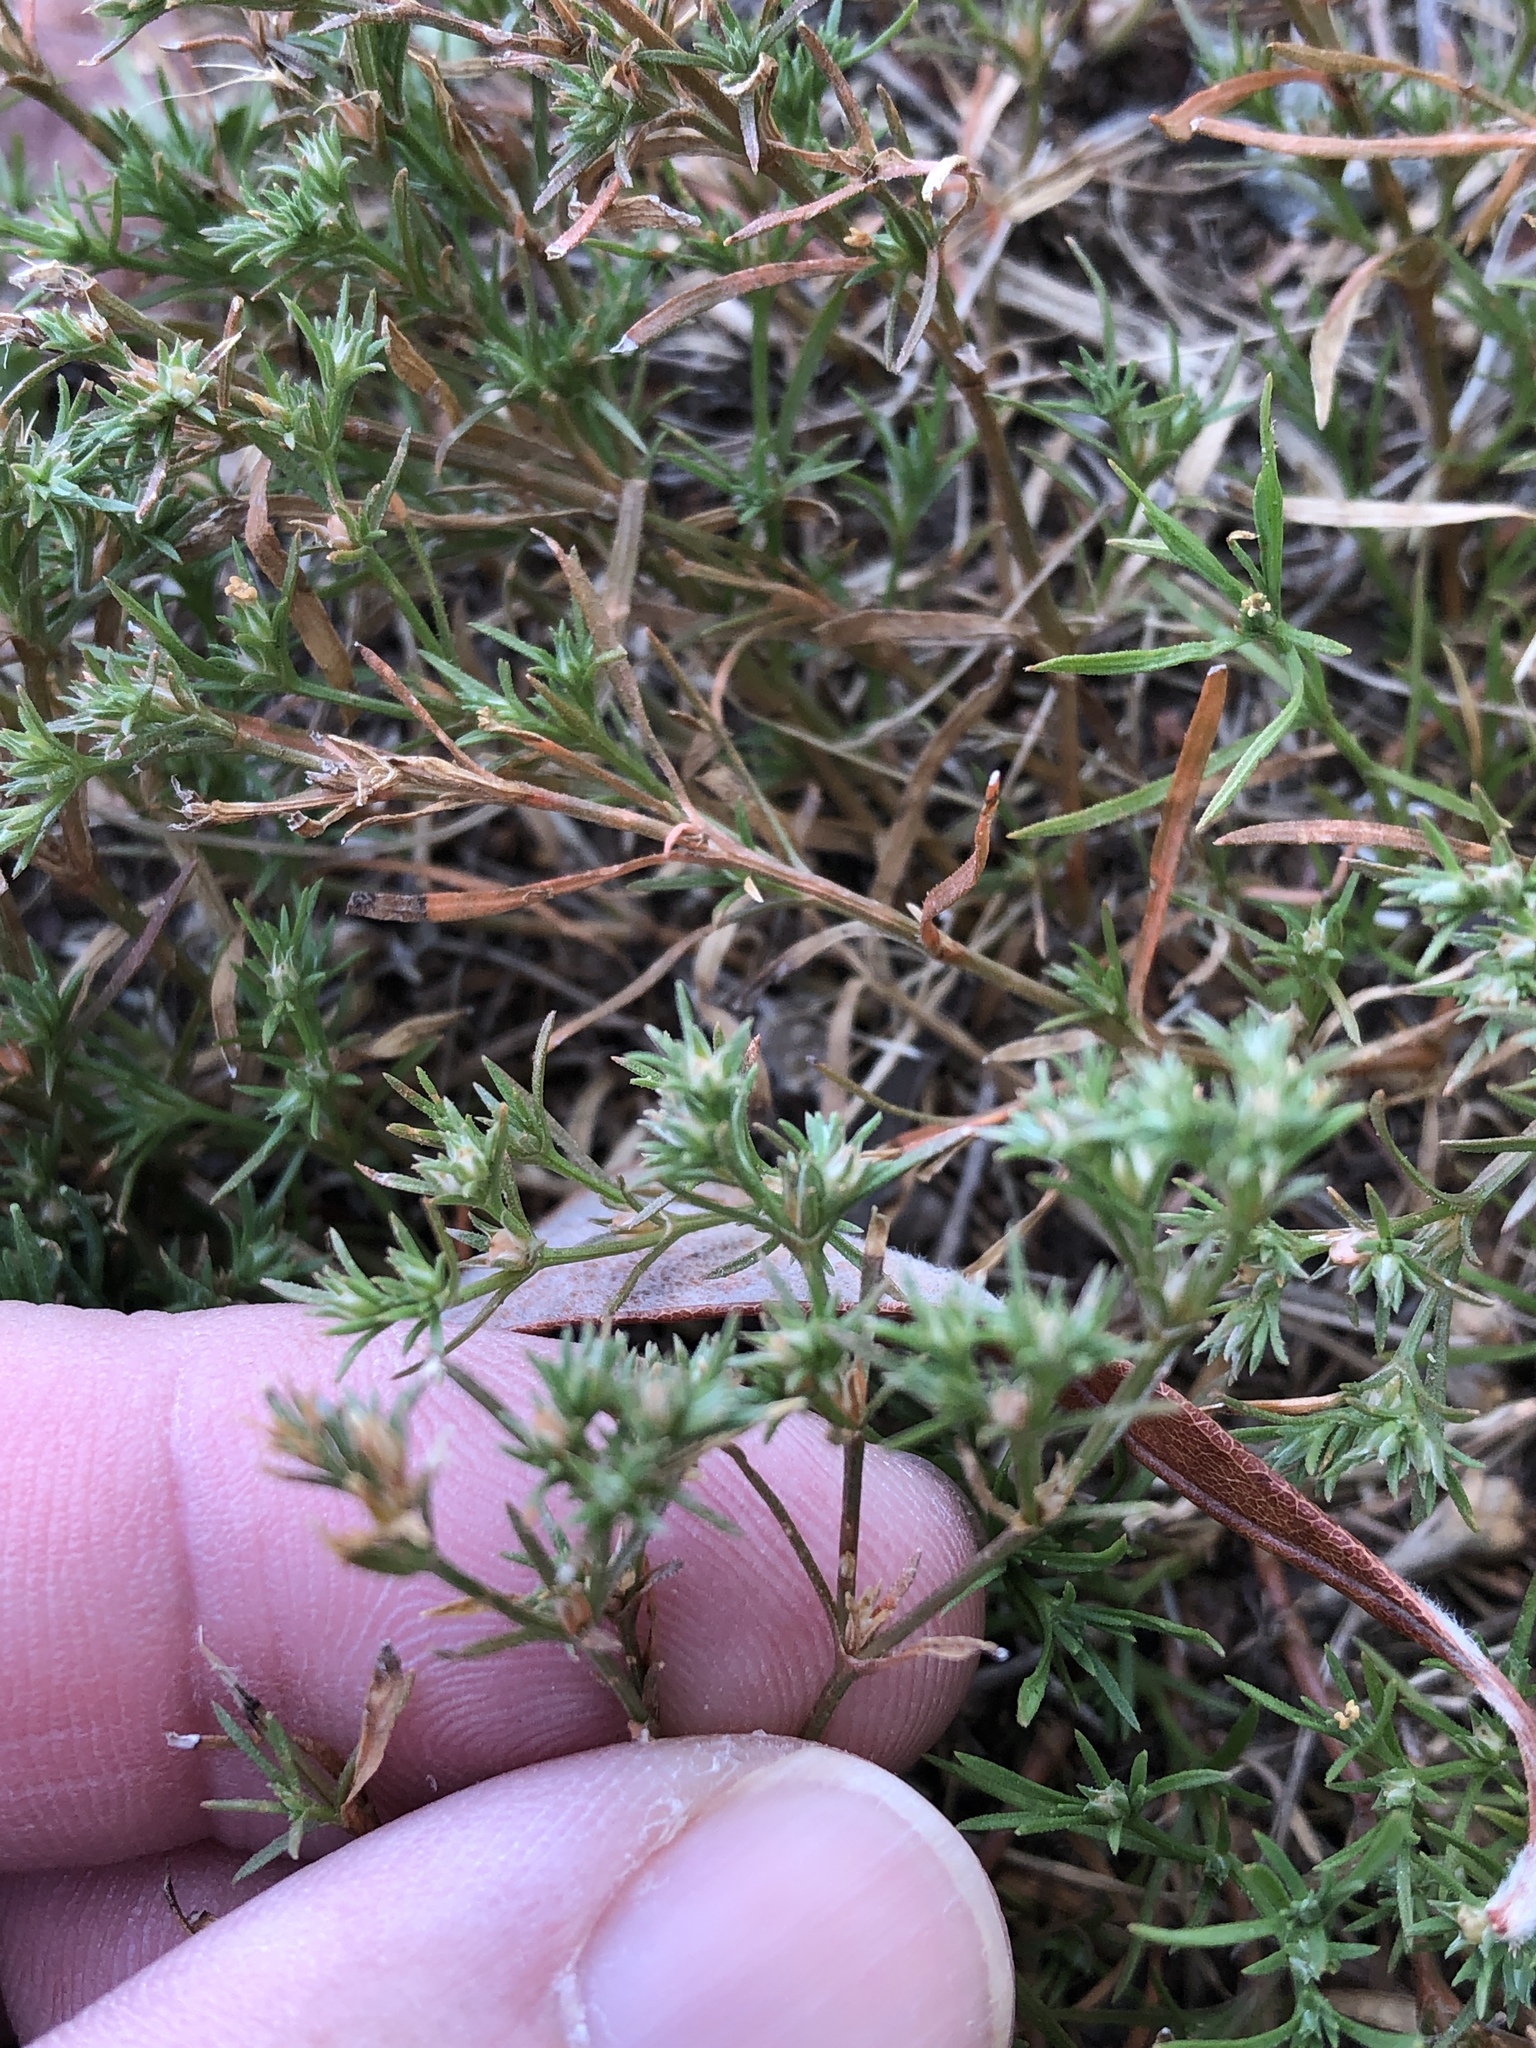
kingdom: Plantae
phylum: Tracheophyta
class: Magnoliopsida
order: Lamiales
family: Tetrachondraceae
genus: Polypremum
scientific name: Polypremum procumbens
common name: Juniper-leaf
